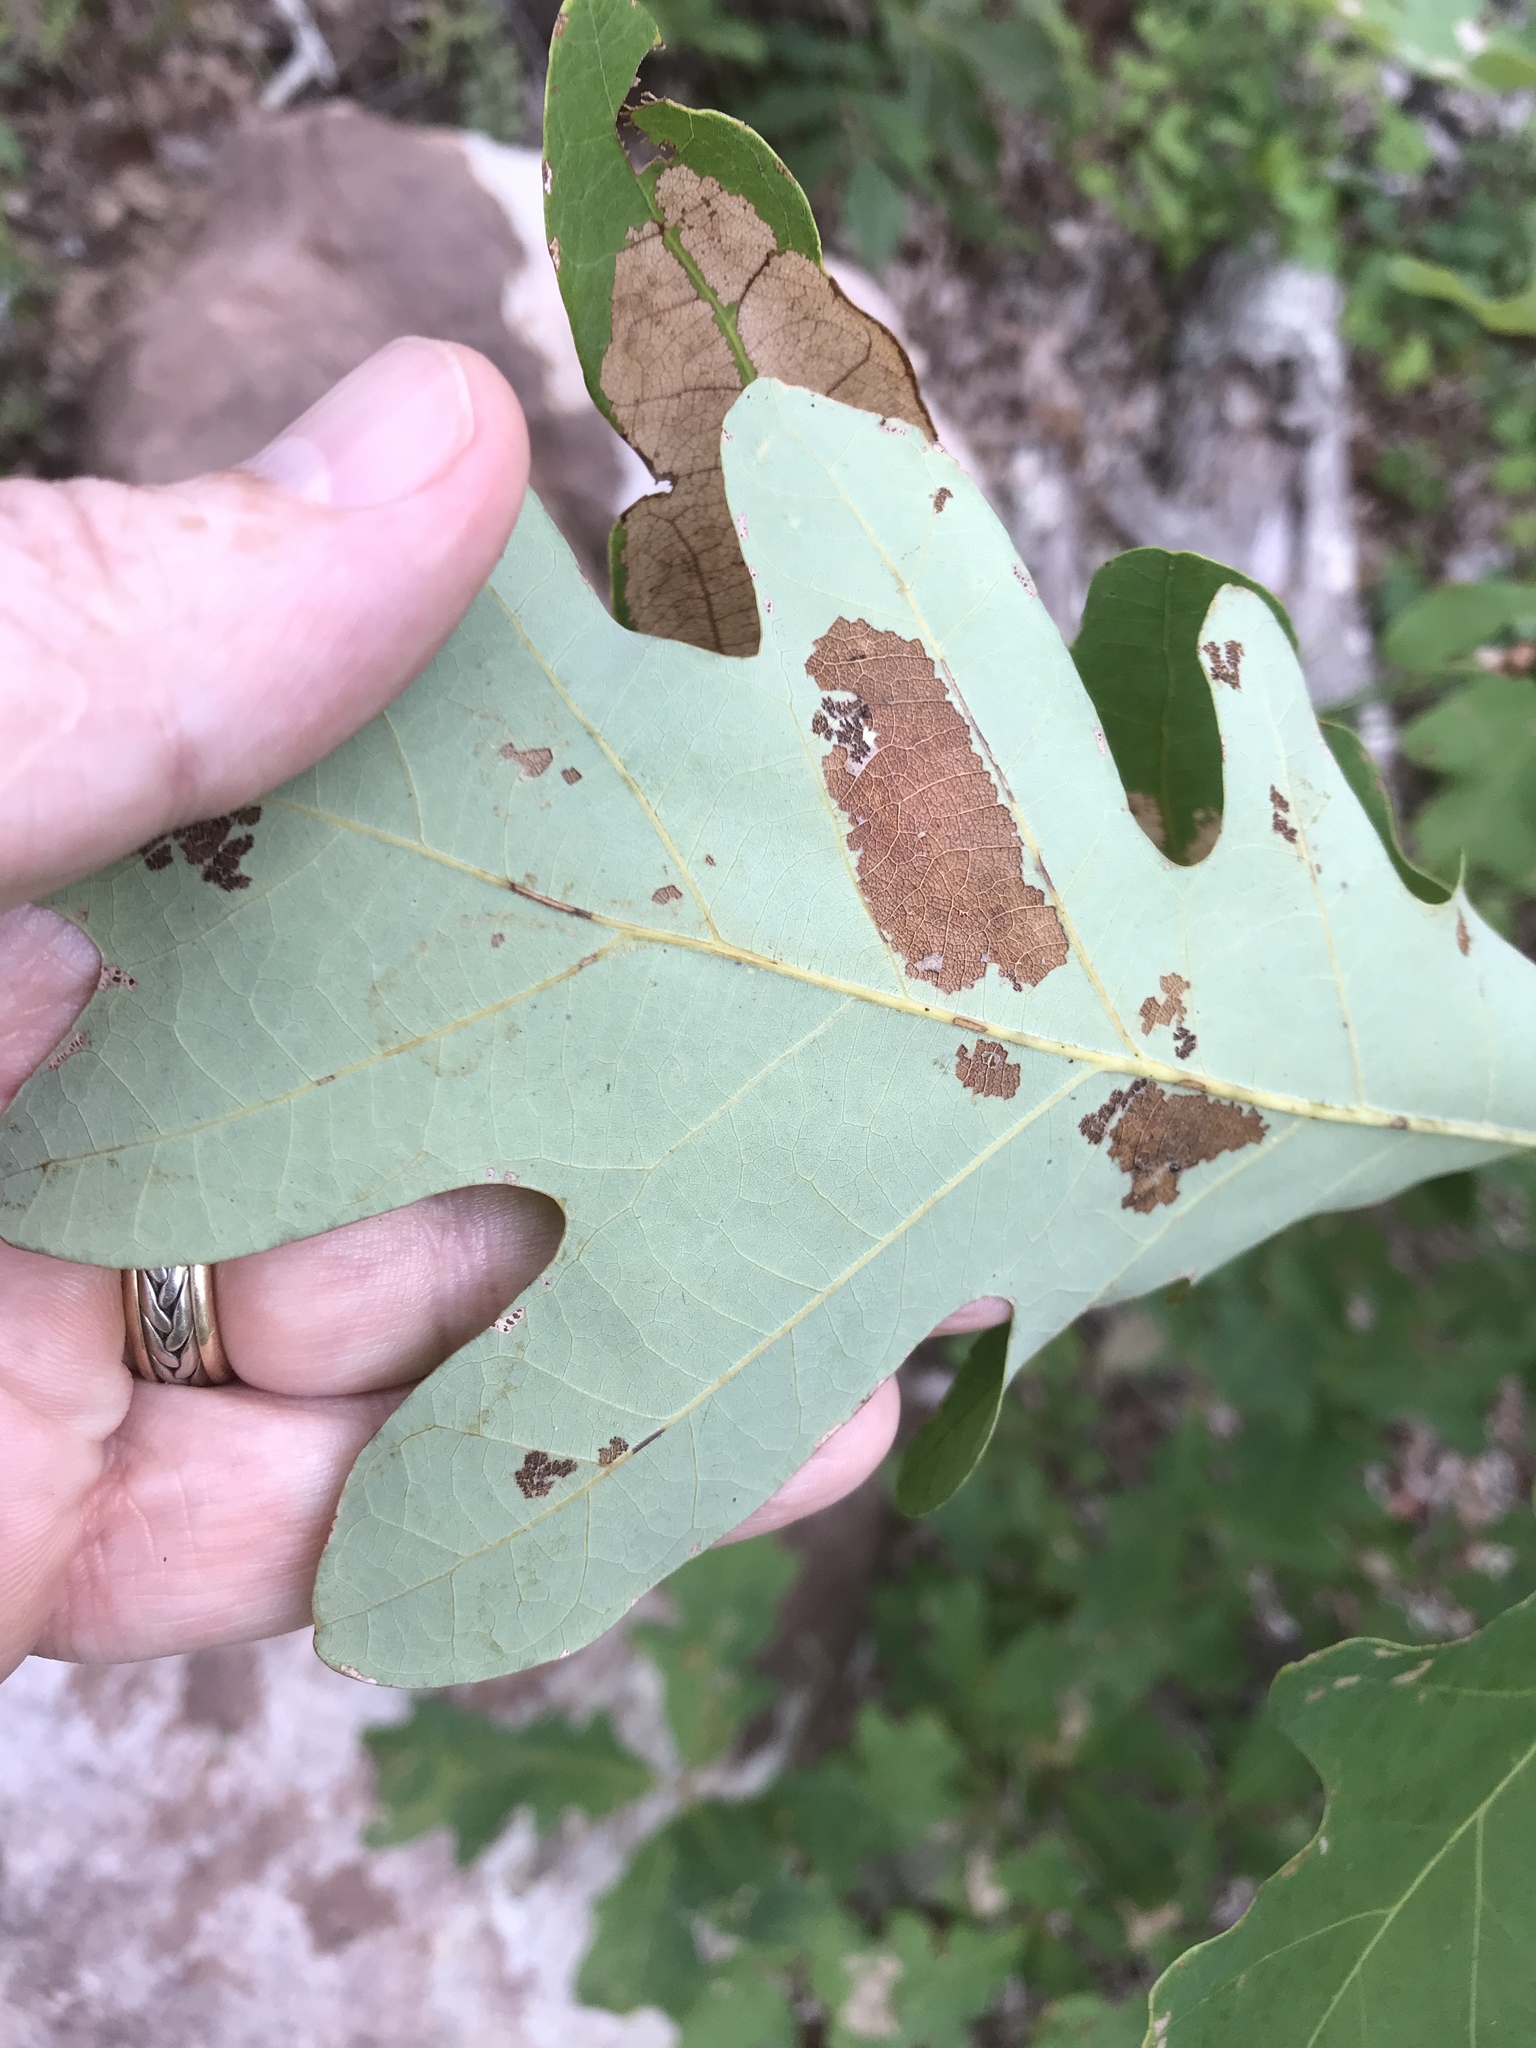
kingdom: Plantae
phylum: Tracheophyta
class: Magnoliopsida
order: Fagales
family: Fagaceae
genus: Quercus
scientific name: Quercus alba
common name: White oak
